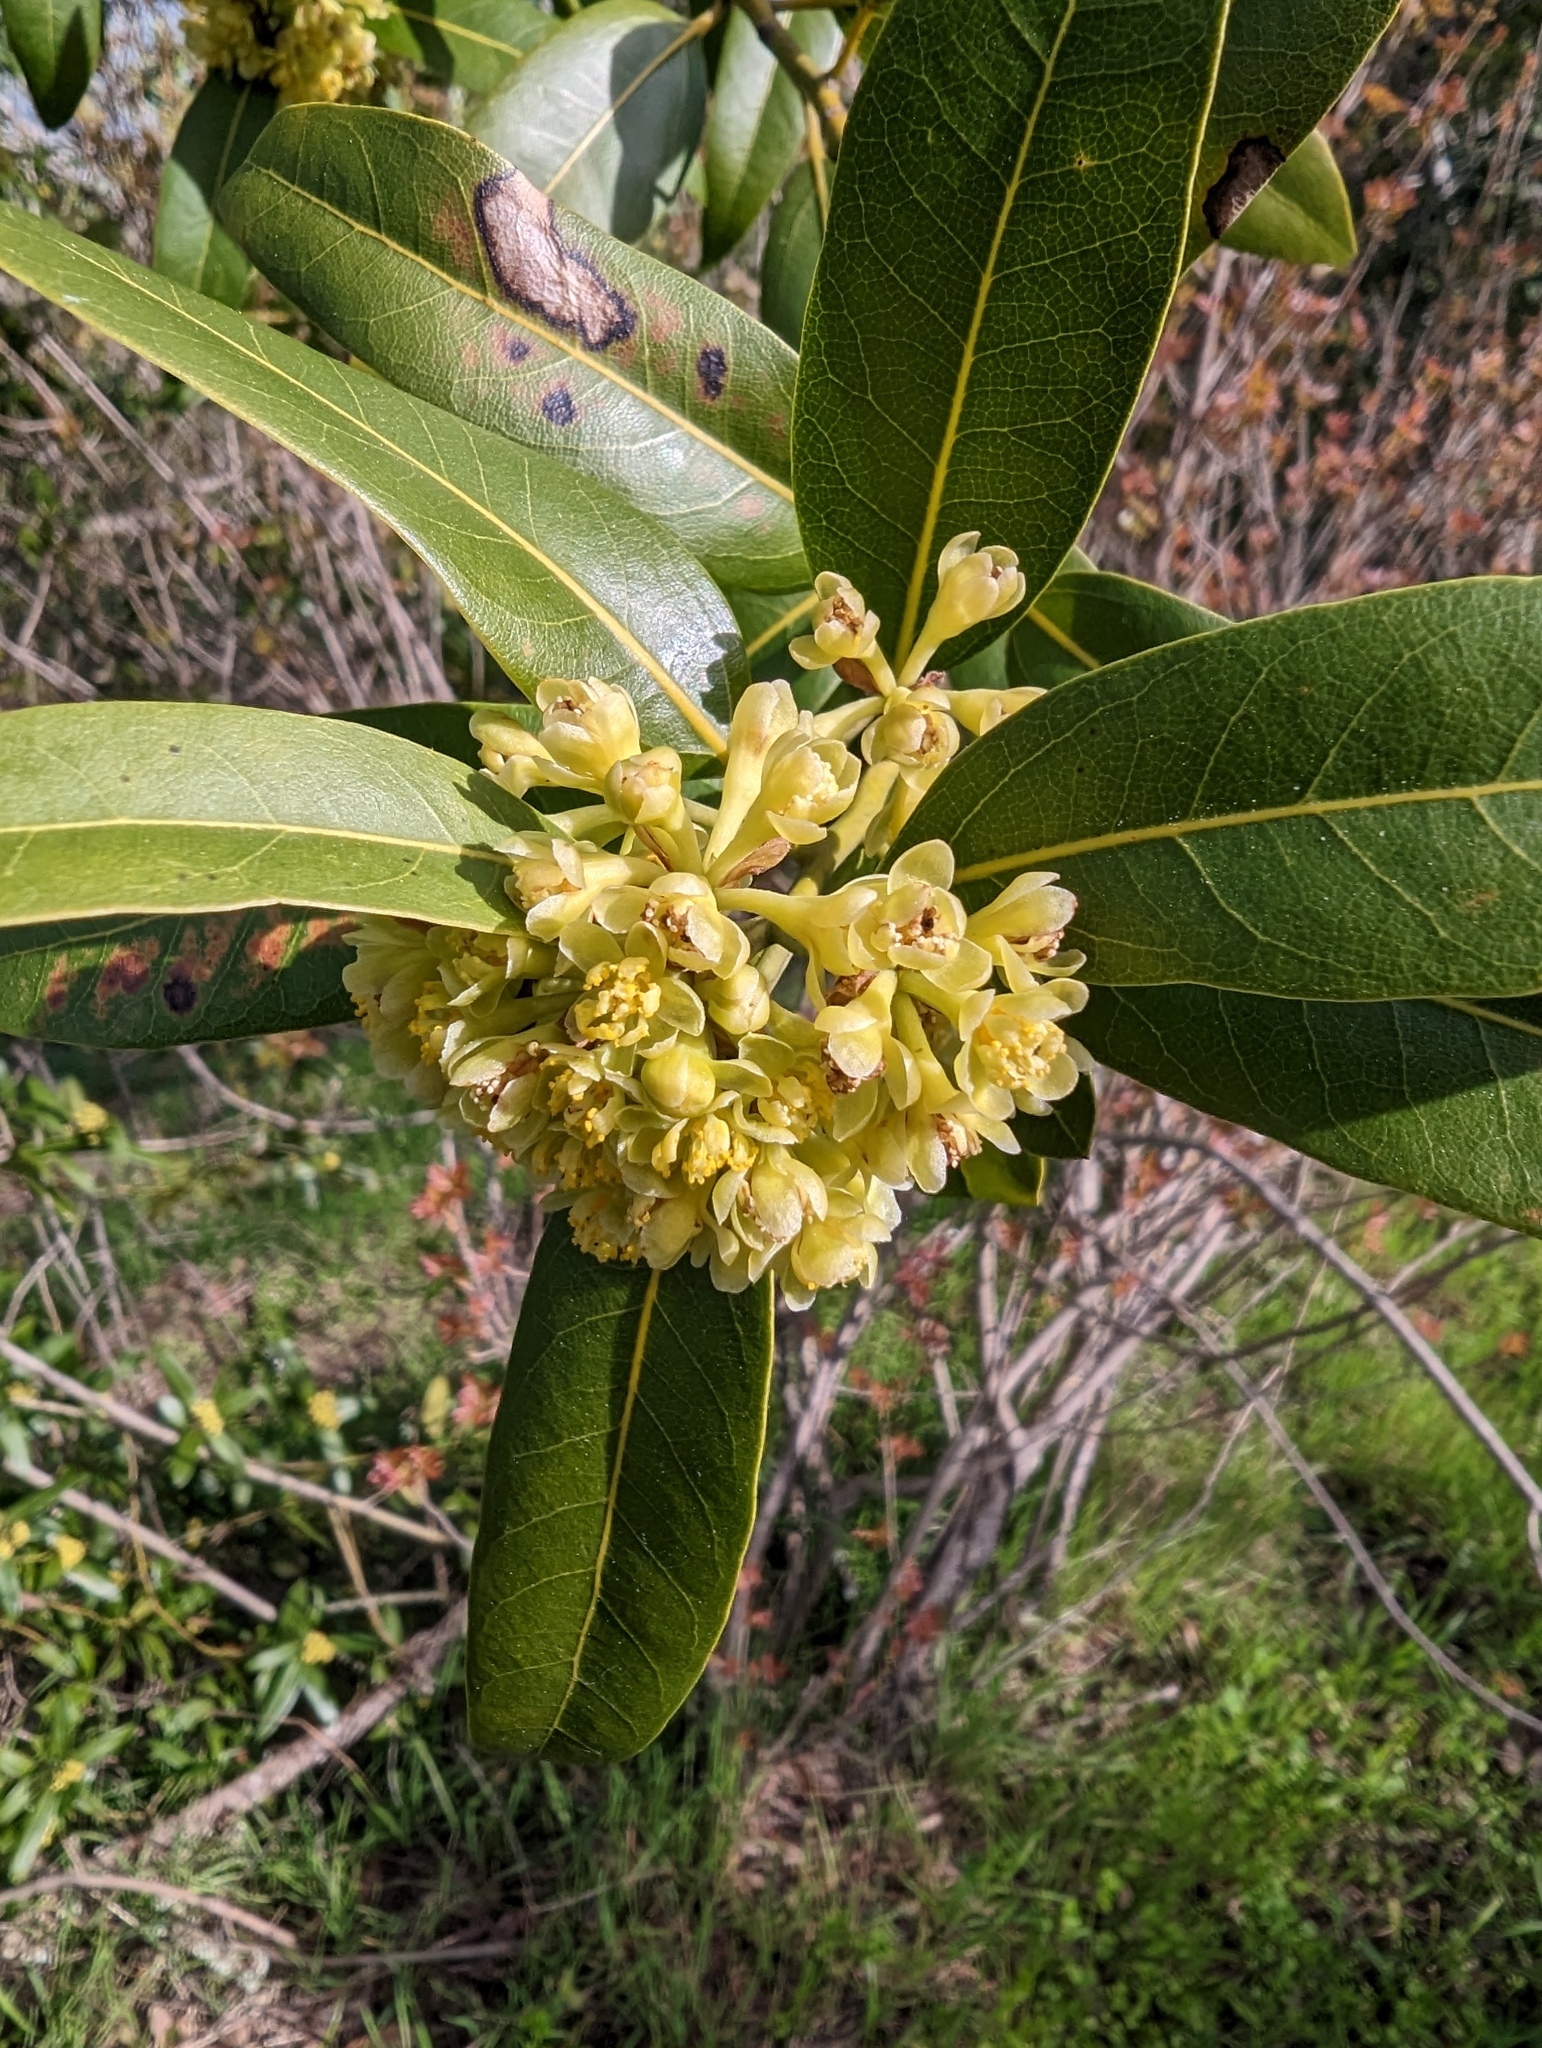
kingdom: Plantae
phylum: Tracheophyta
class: Magnoliopsida
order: Laurales
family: Lauraceae
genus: Umbellularia
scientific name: Umbellularia californica
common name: California bay
